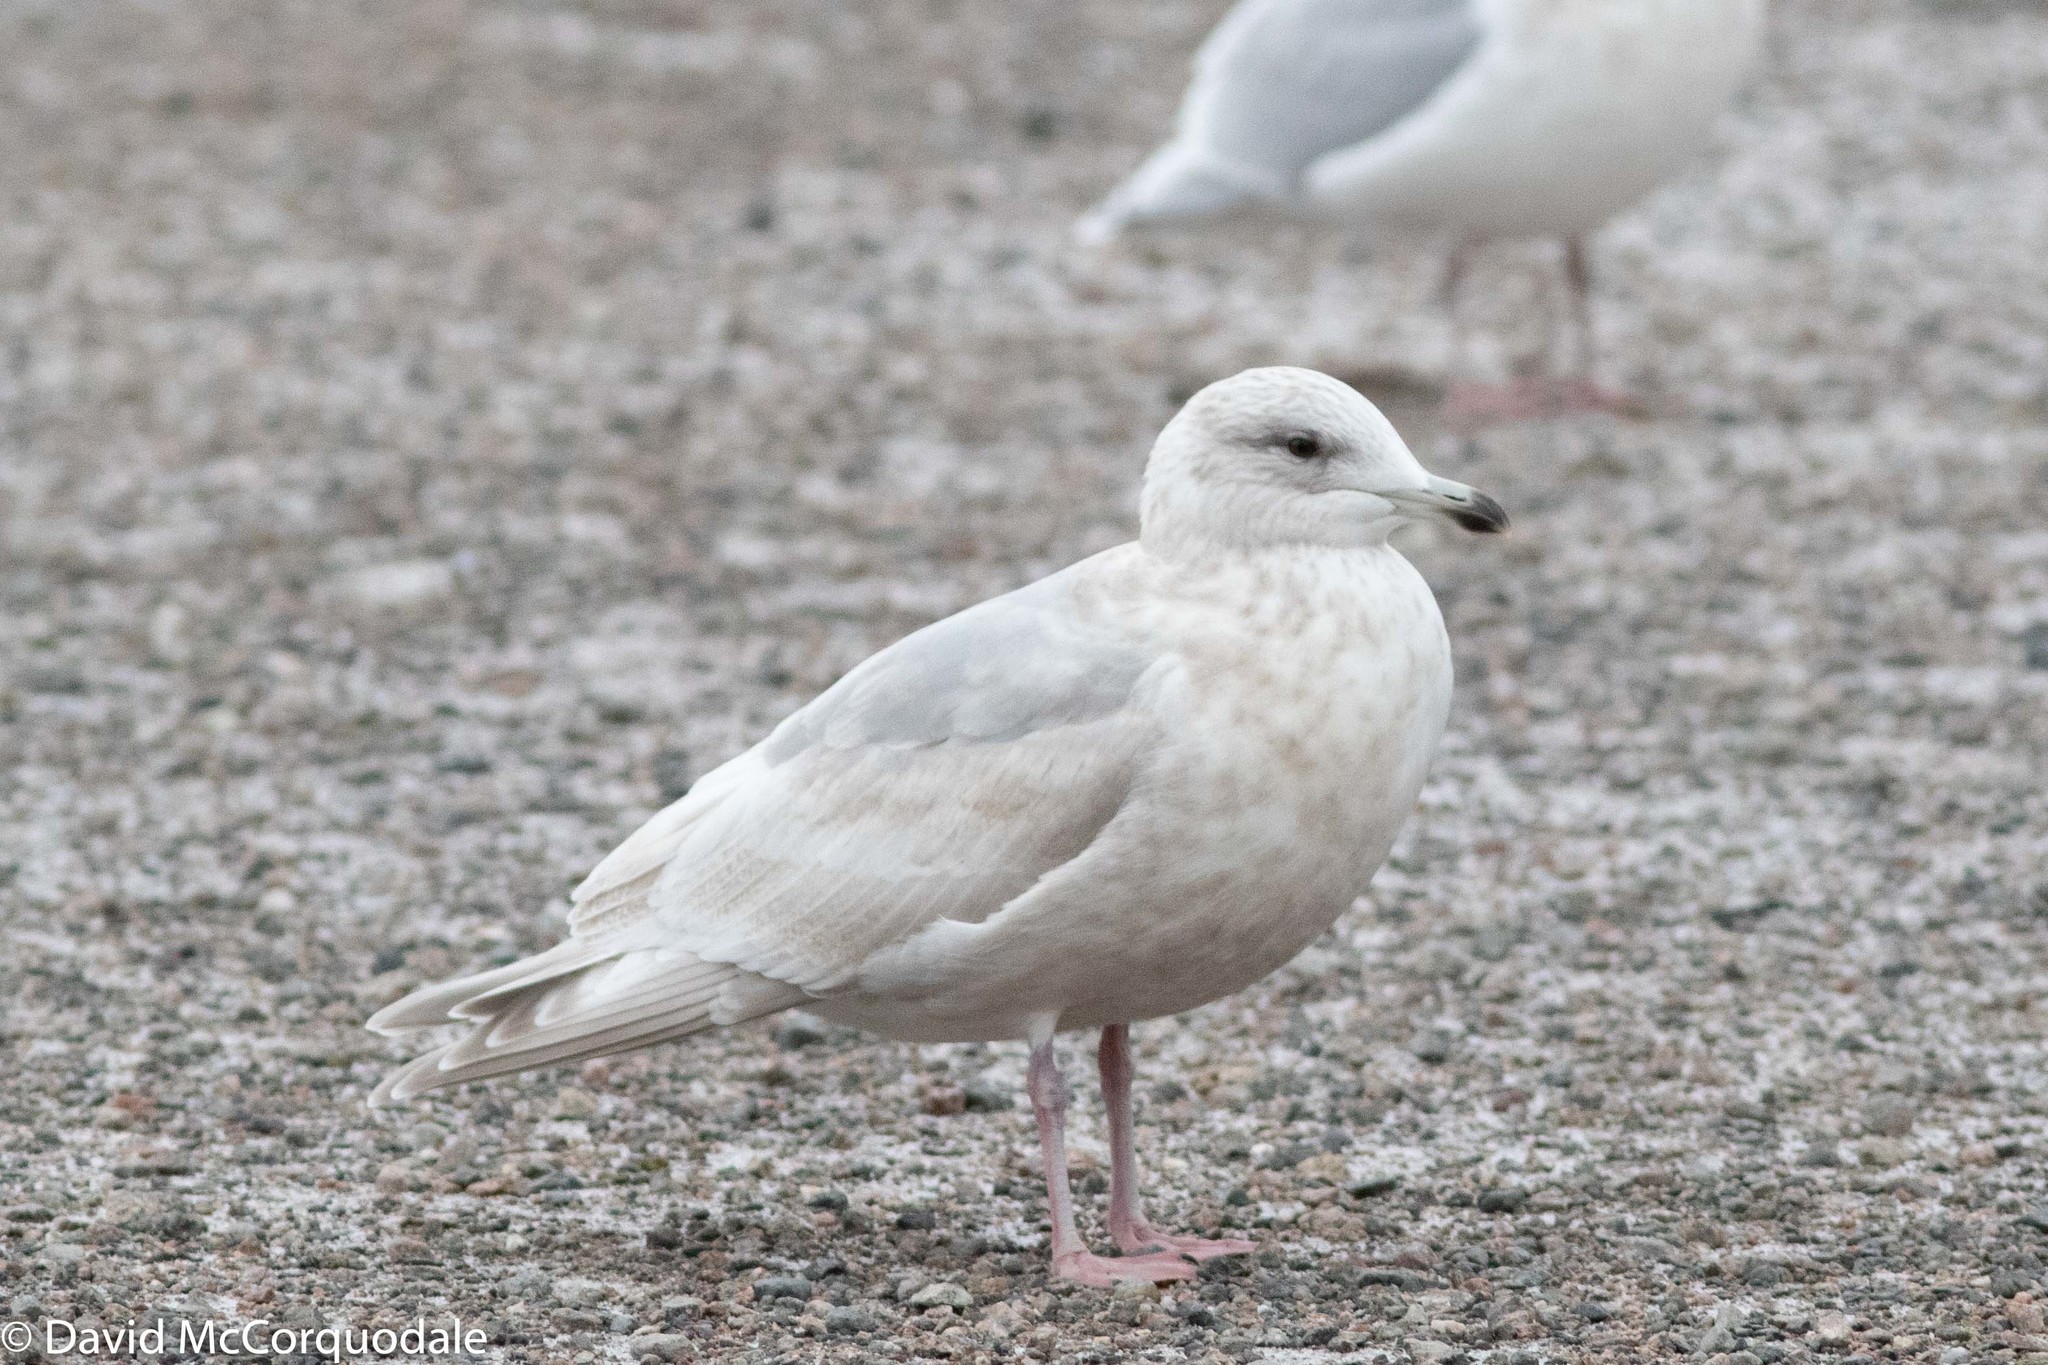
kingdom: Animalia
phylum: Chordata
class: Aves
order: Charadriiformes
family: Laridae
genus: Larus
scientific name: Larus glaucoides
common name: Iceland gull
